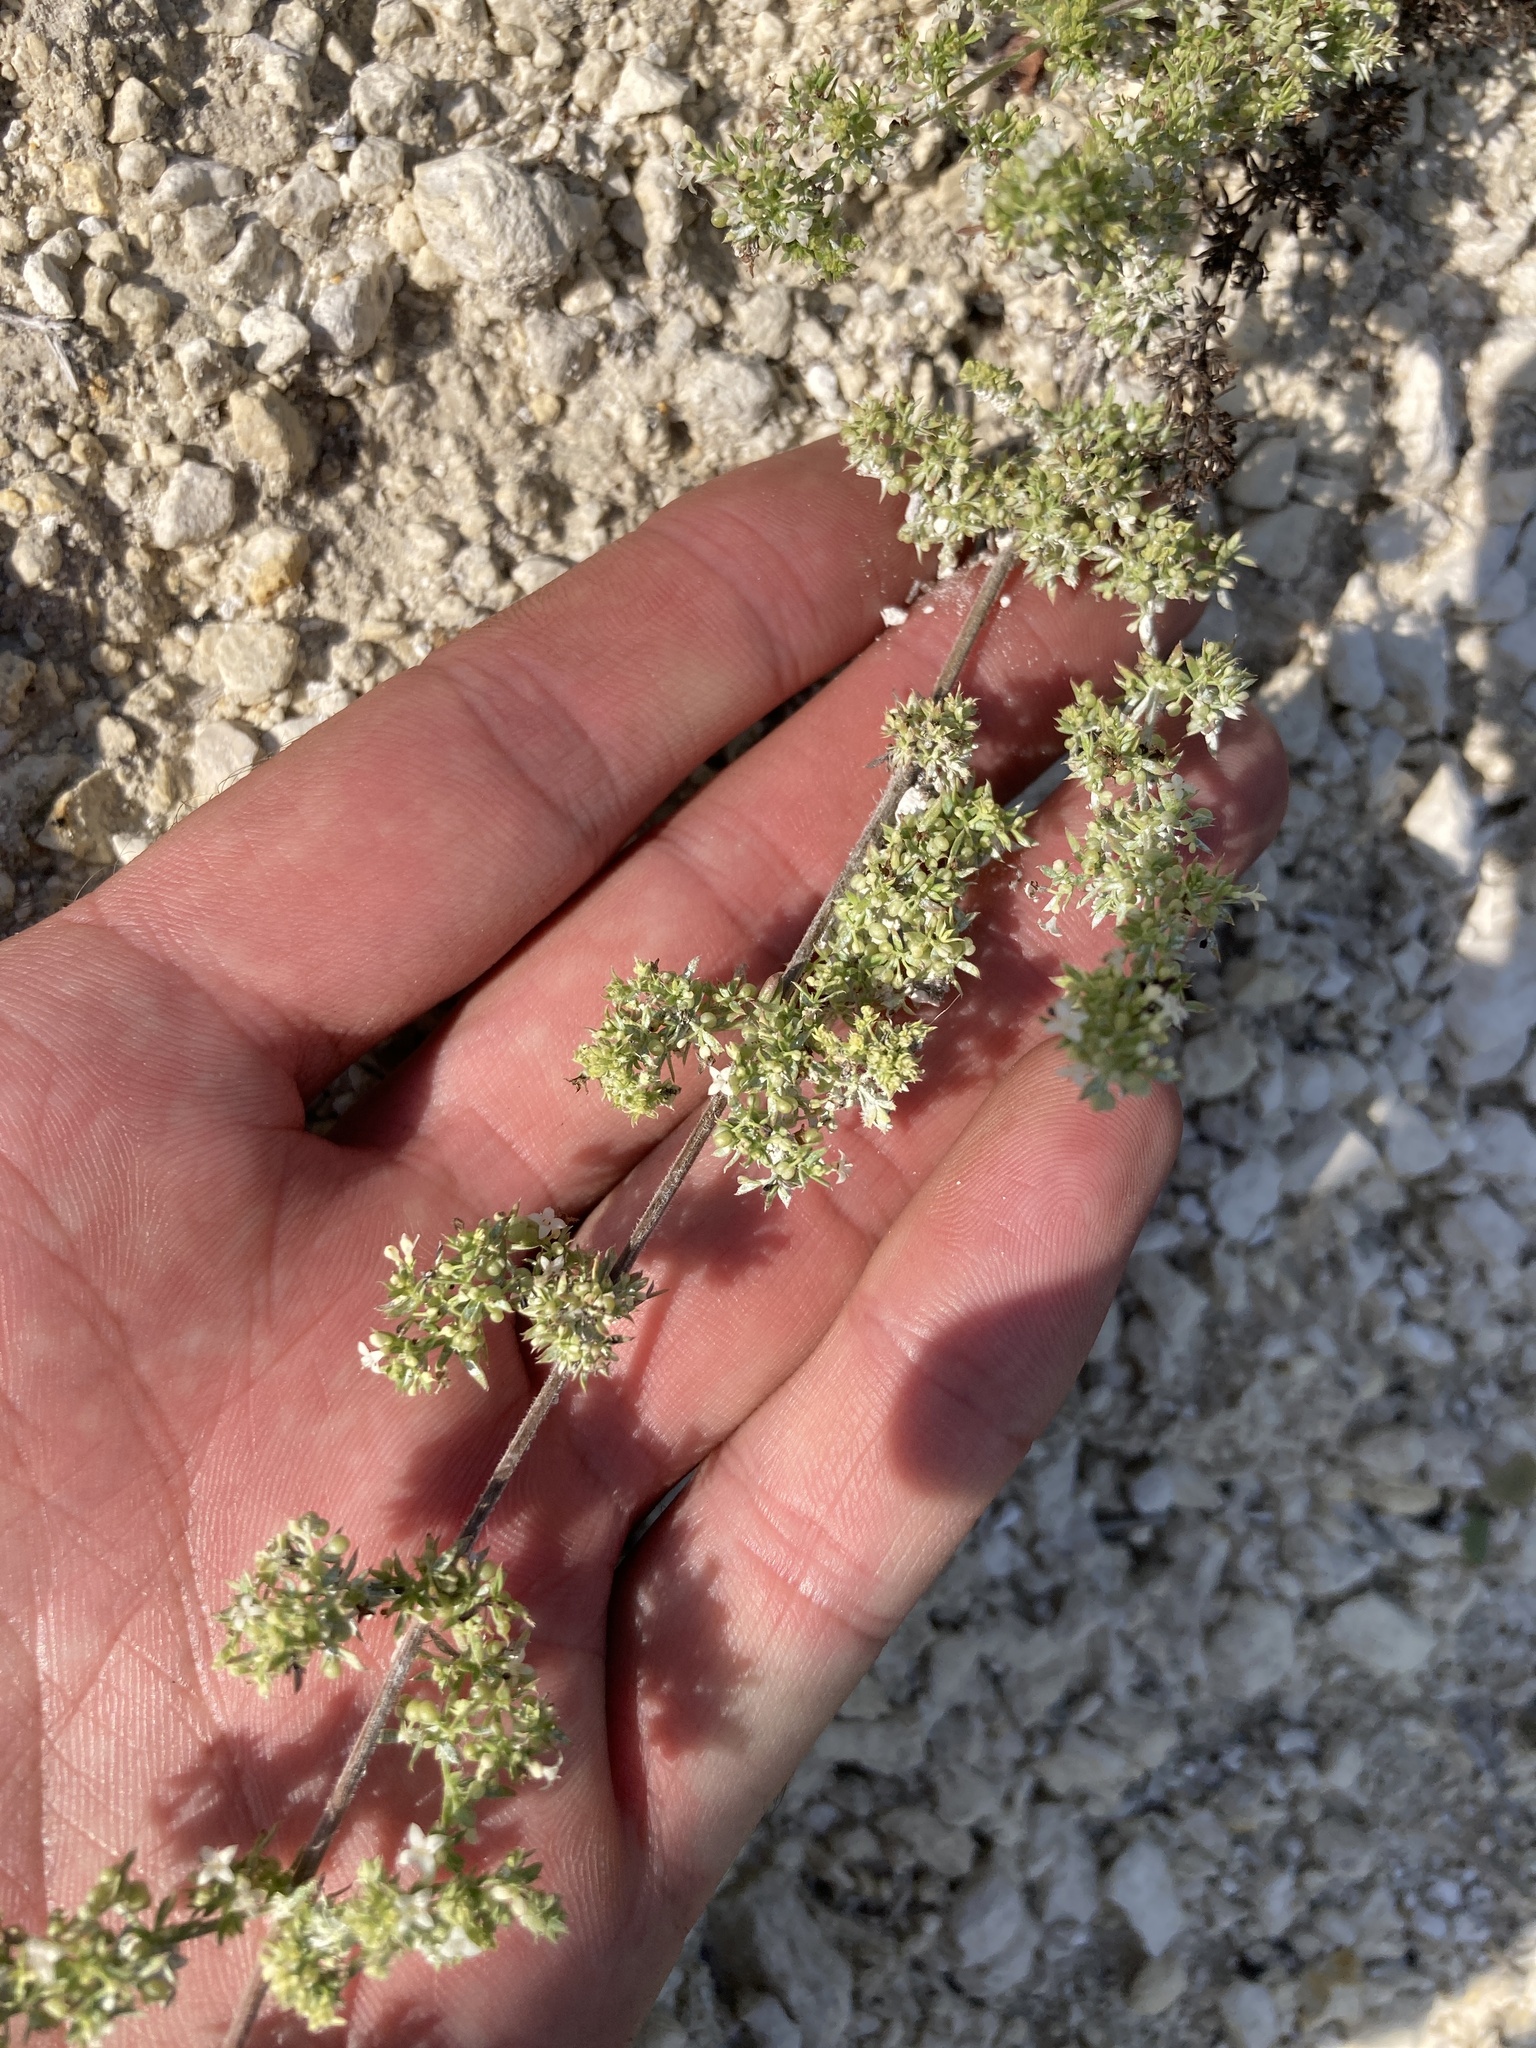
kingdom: Plantae
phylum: Tracheophyta
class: Magnoliopsida
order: Gentianales
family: Rubiaceae
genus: Galium
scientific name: Galium humifusum
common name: Spreading bedstraw
